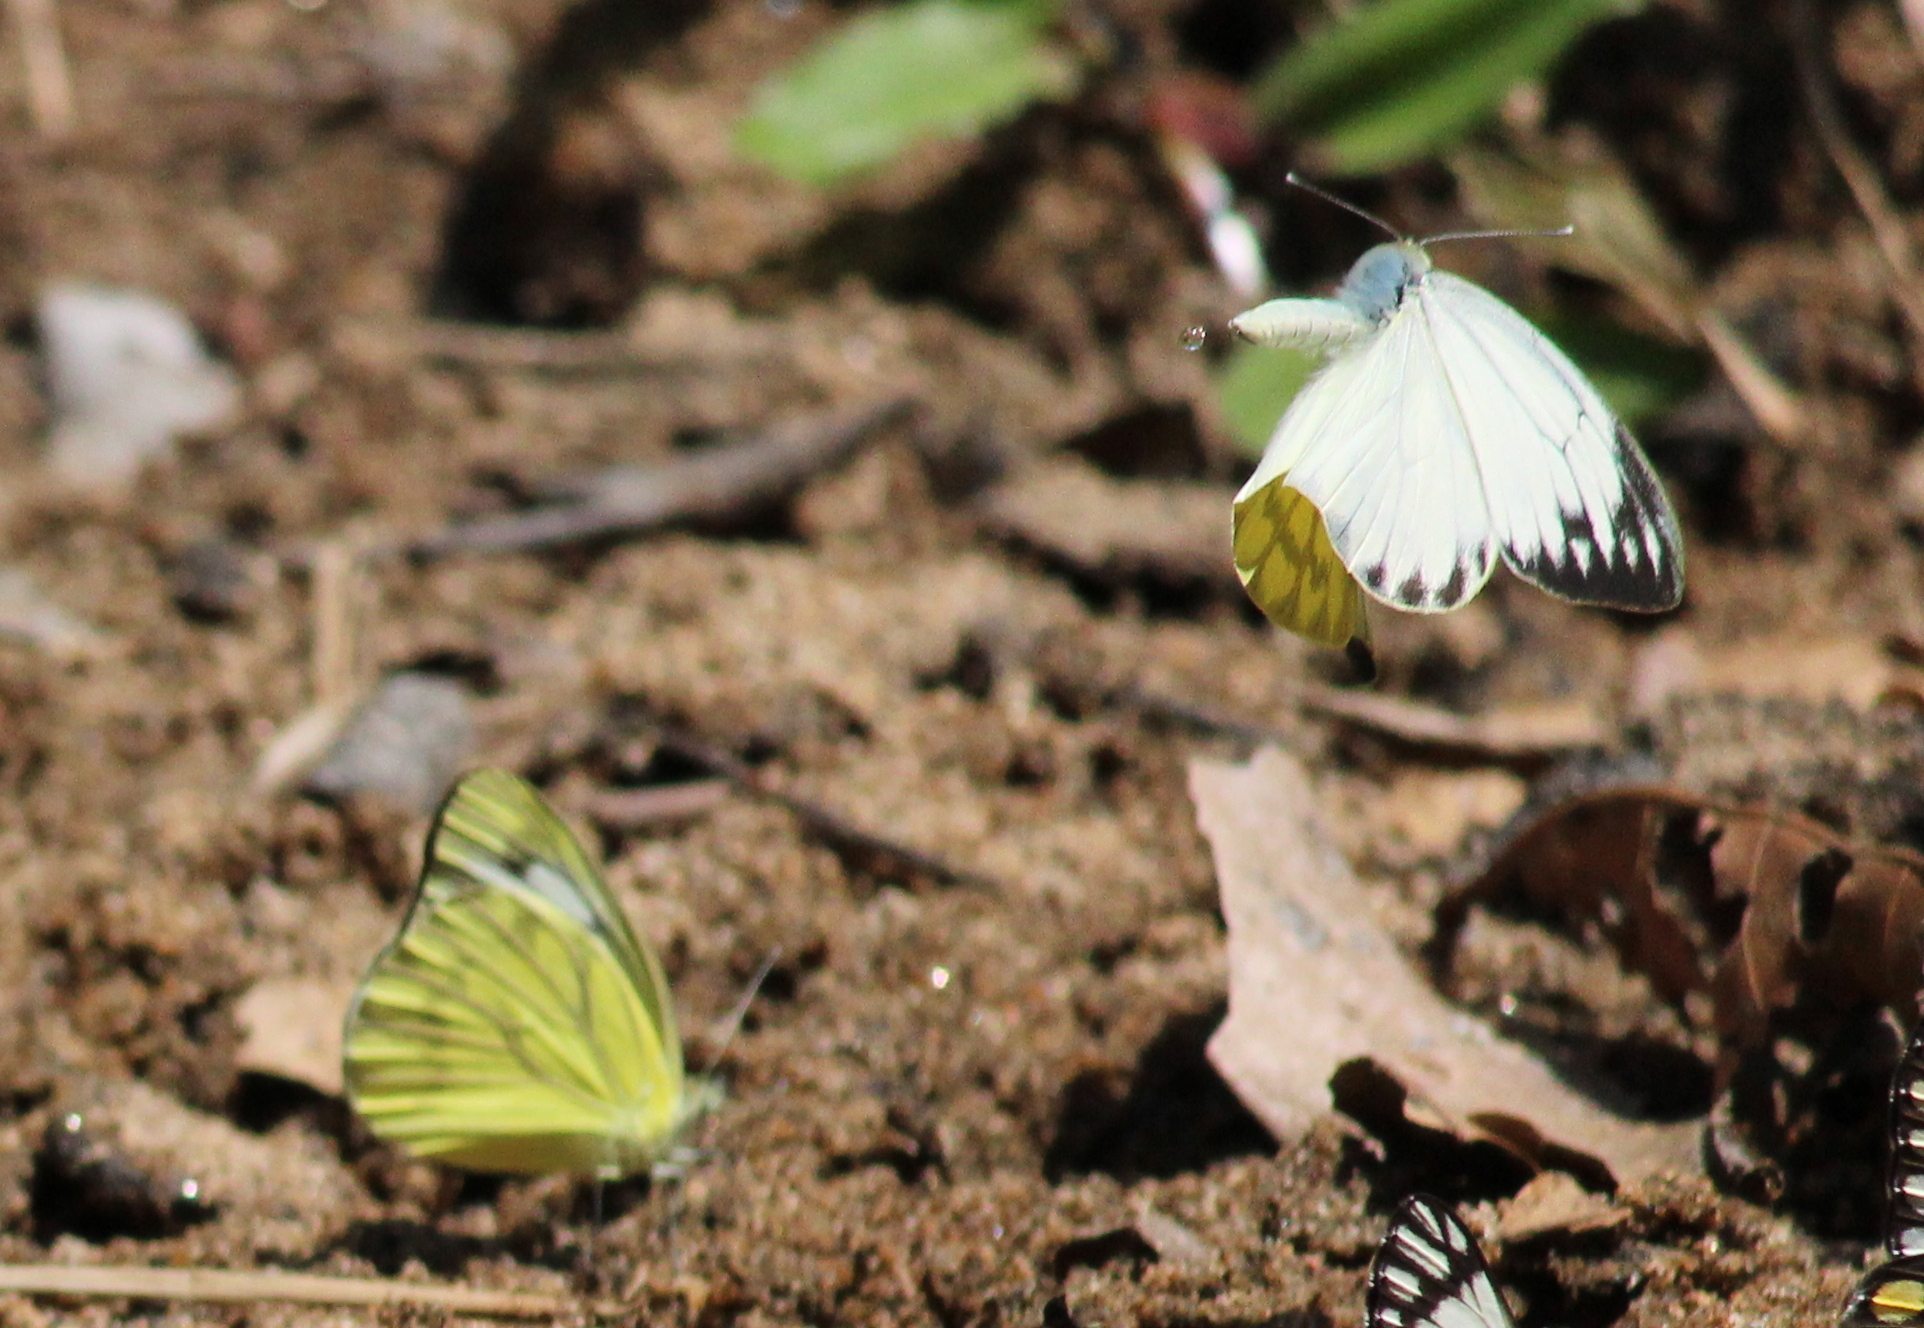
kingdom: Animalia
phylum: Arthropoda
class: Insecta
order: Lepidoptera
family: Pieridae
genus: Cepora
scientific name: Cepora nerissa
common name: Common gull
